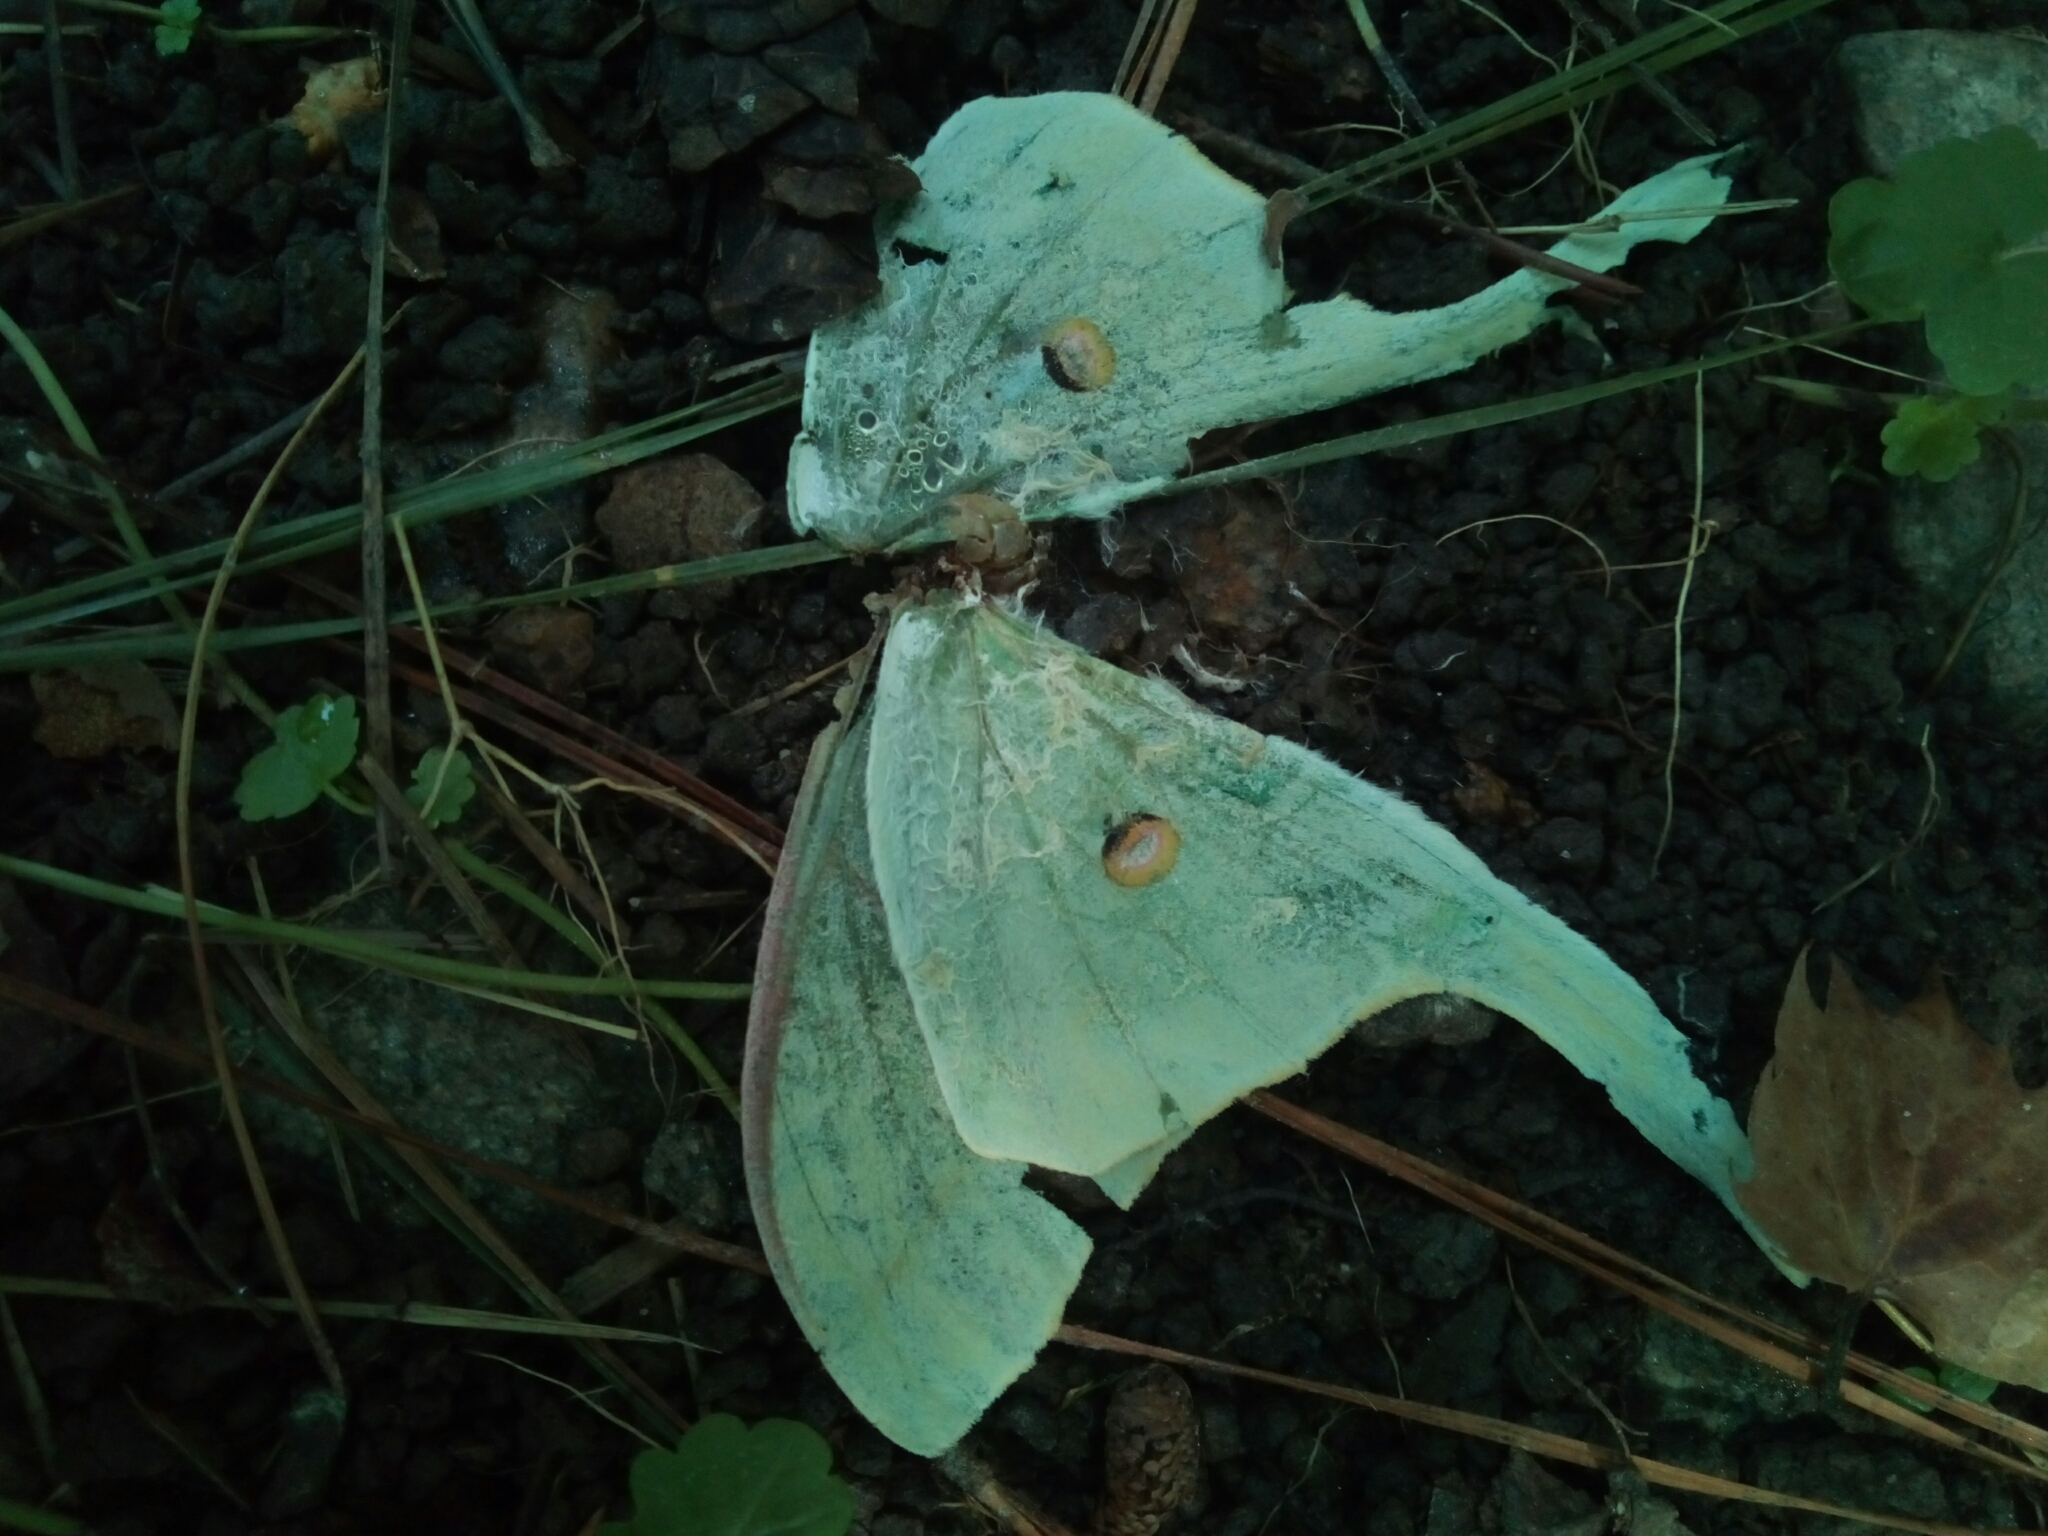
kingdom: Animalia
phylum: Arthropoda
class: Insecta
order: Lepidoptera
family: Saturniidae
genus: Actias
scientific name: Actias luna
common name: Luna moth
